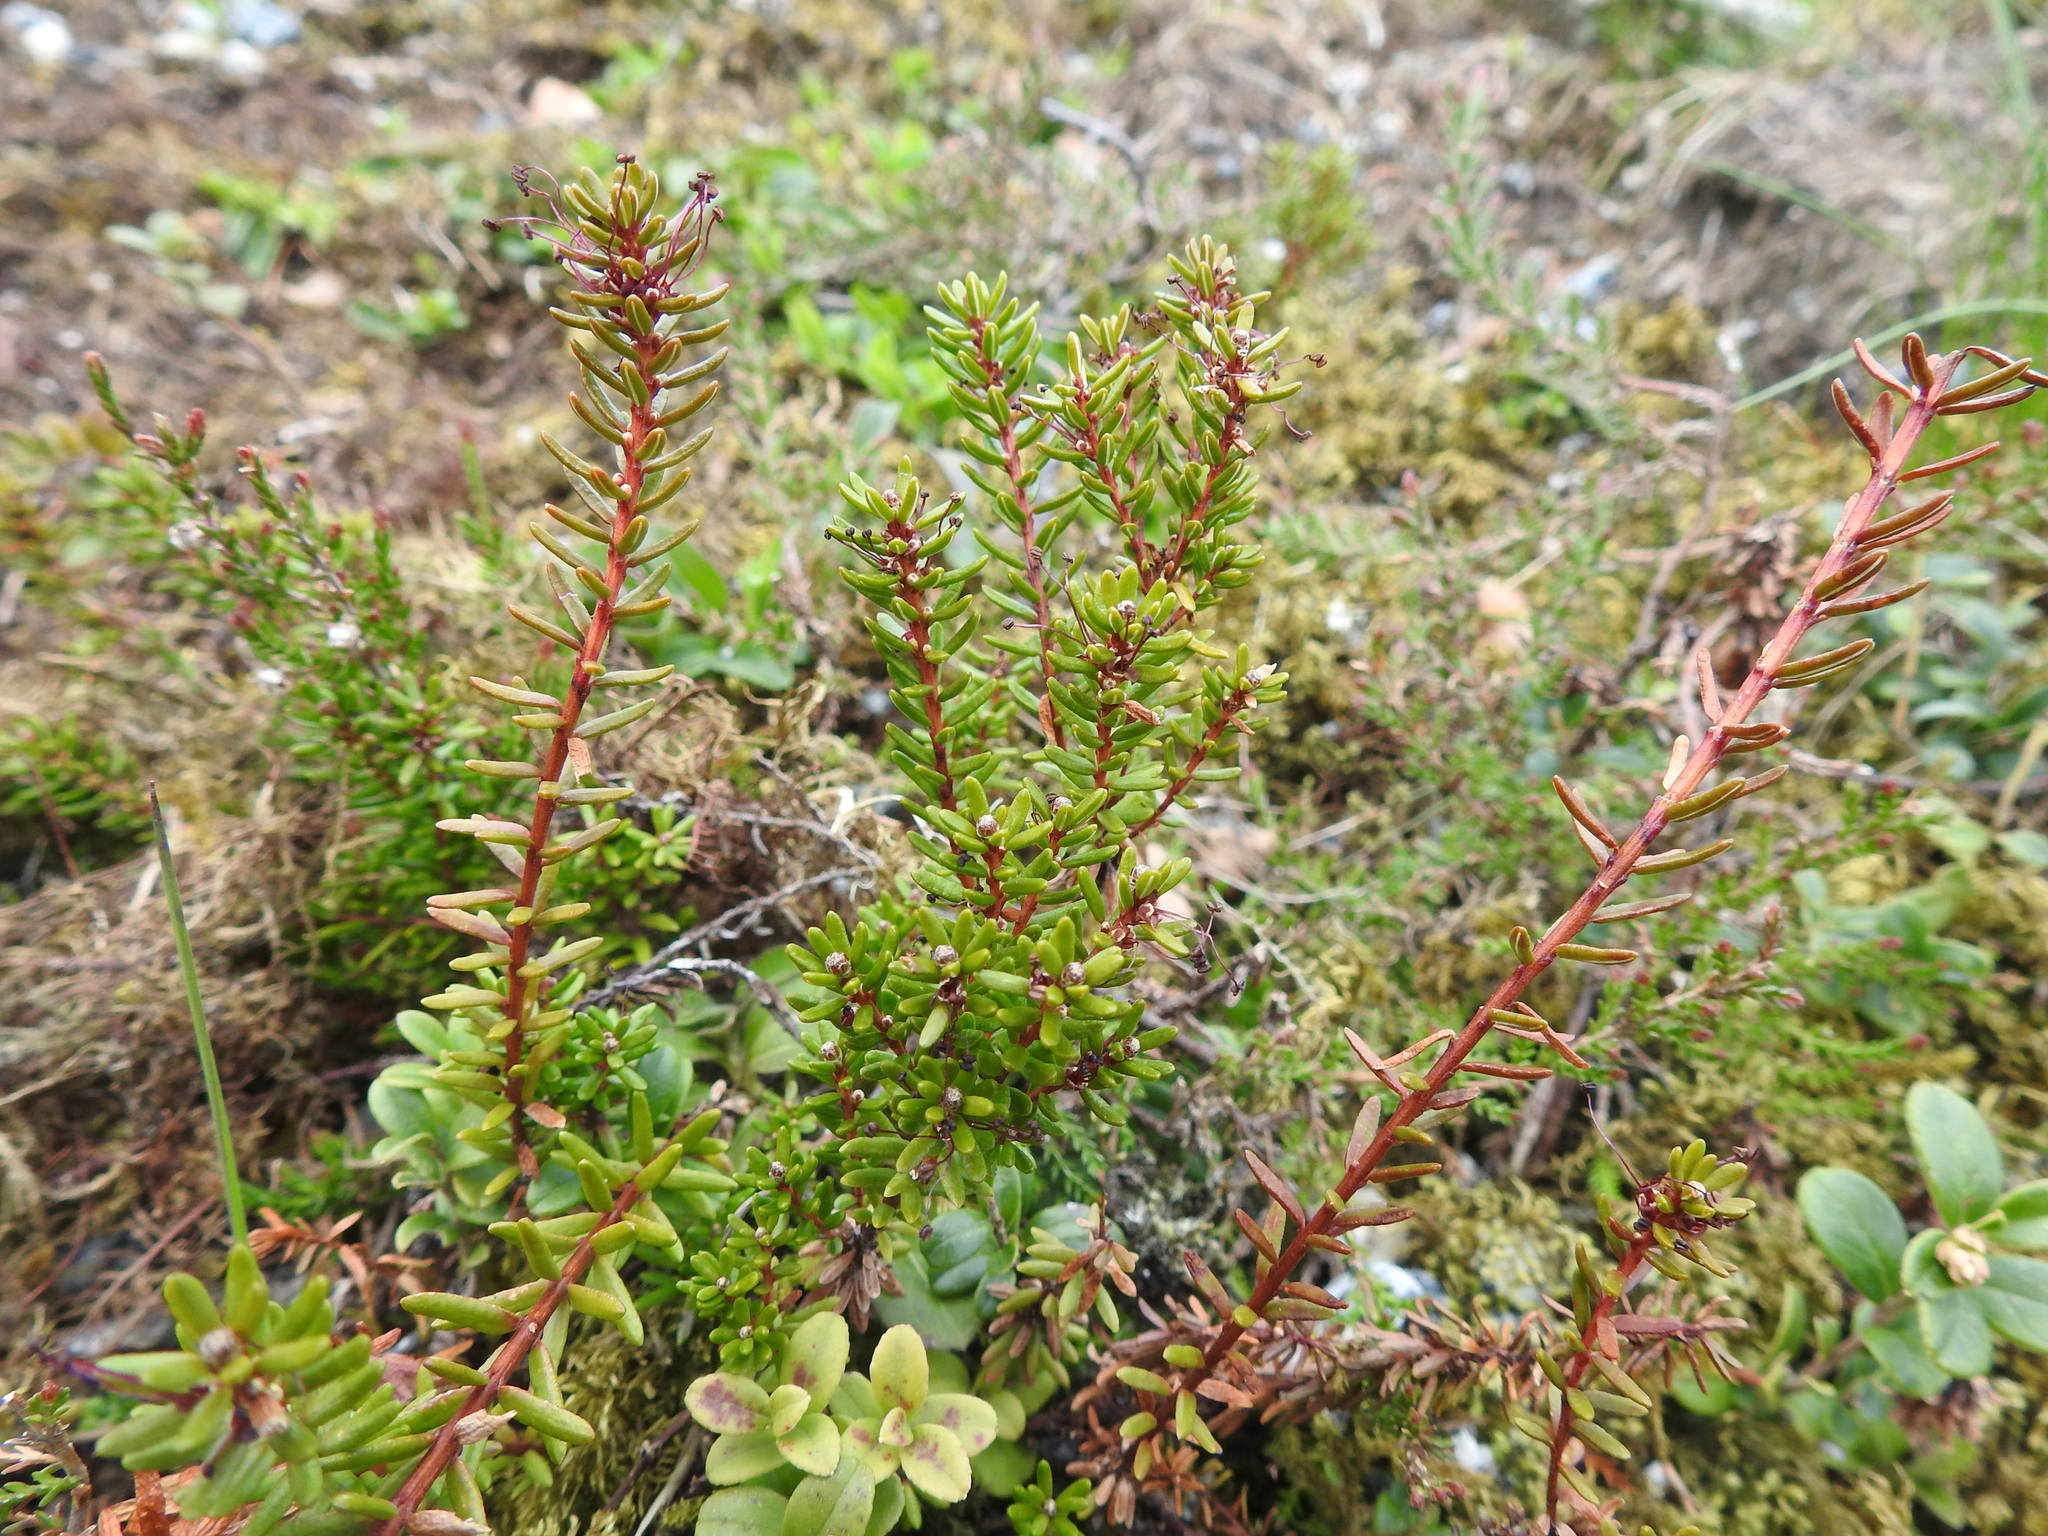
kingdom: Plantae
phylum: Tracheophyta
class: Magnoliopsida
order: Ericales
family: Ericaceae
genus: Empetrum
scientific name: Empetrum nigrum
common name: Black crowberry
